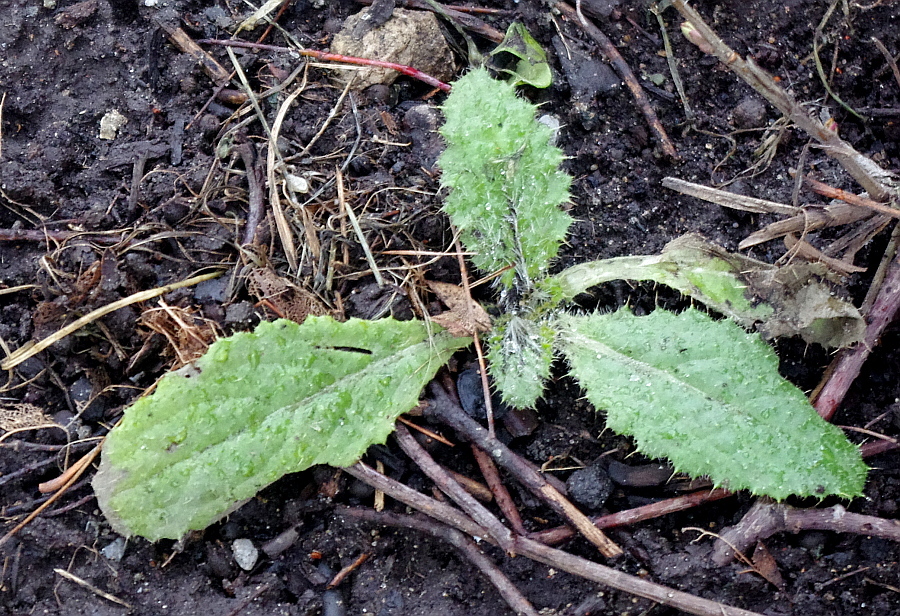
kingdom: Plantae
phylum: Tracheophyta
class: Magnoliopsida
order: Asterales
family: Asteraceae
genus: Cirsium
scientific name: Cirsium vulgare
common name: Bull thistle
